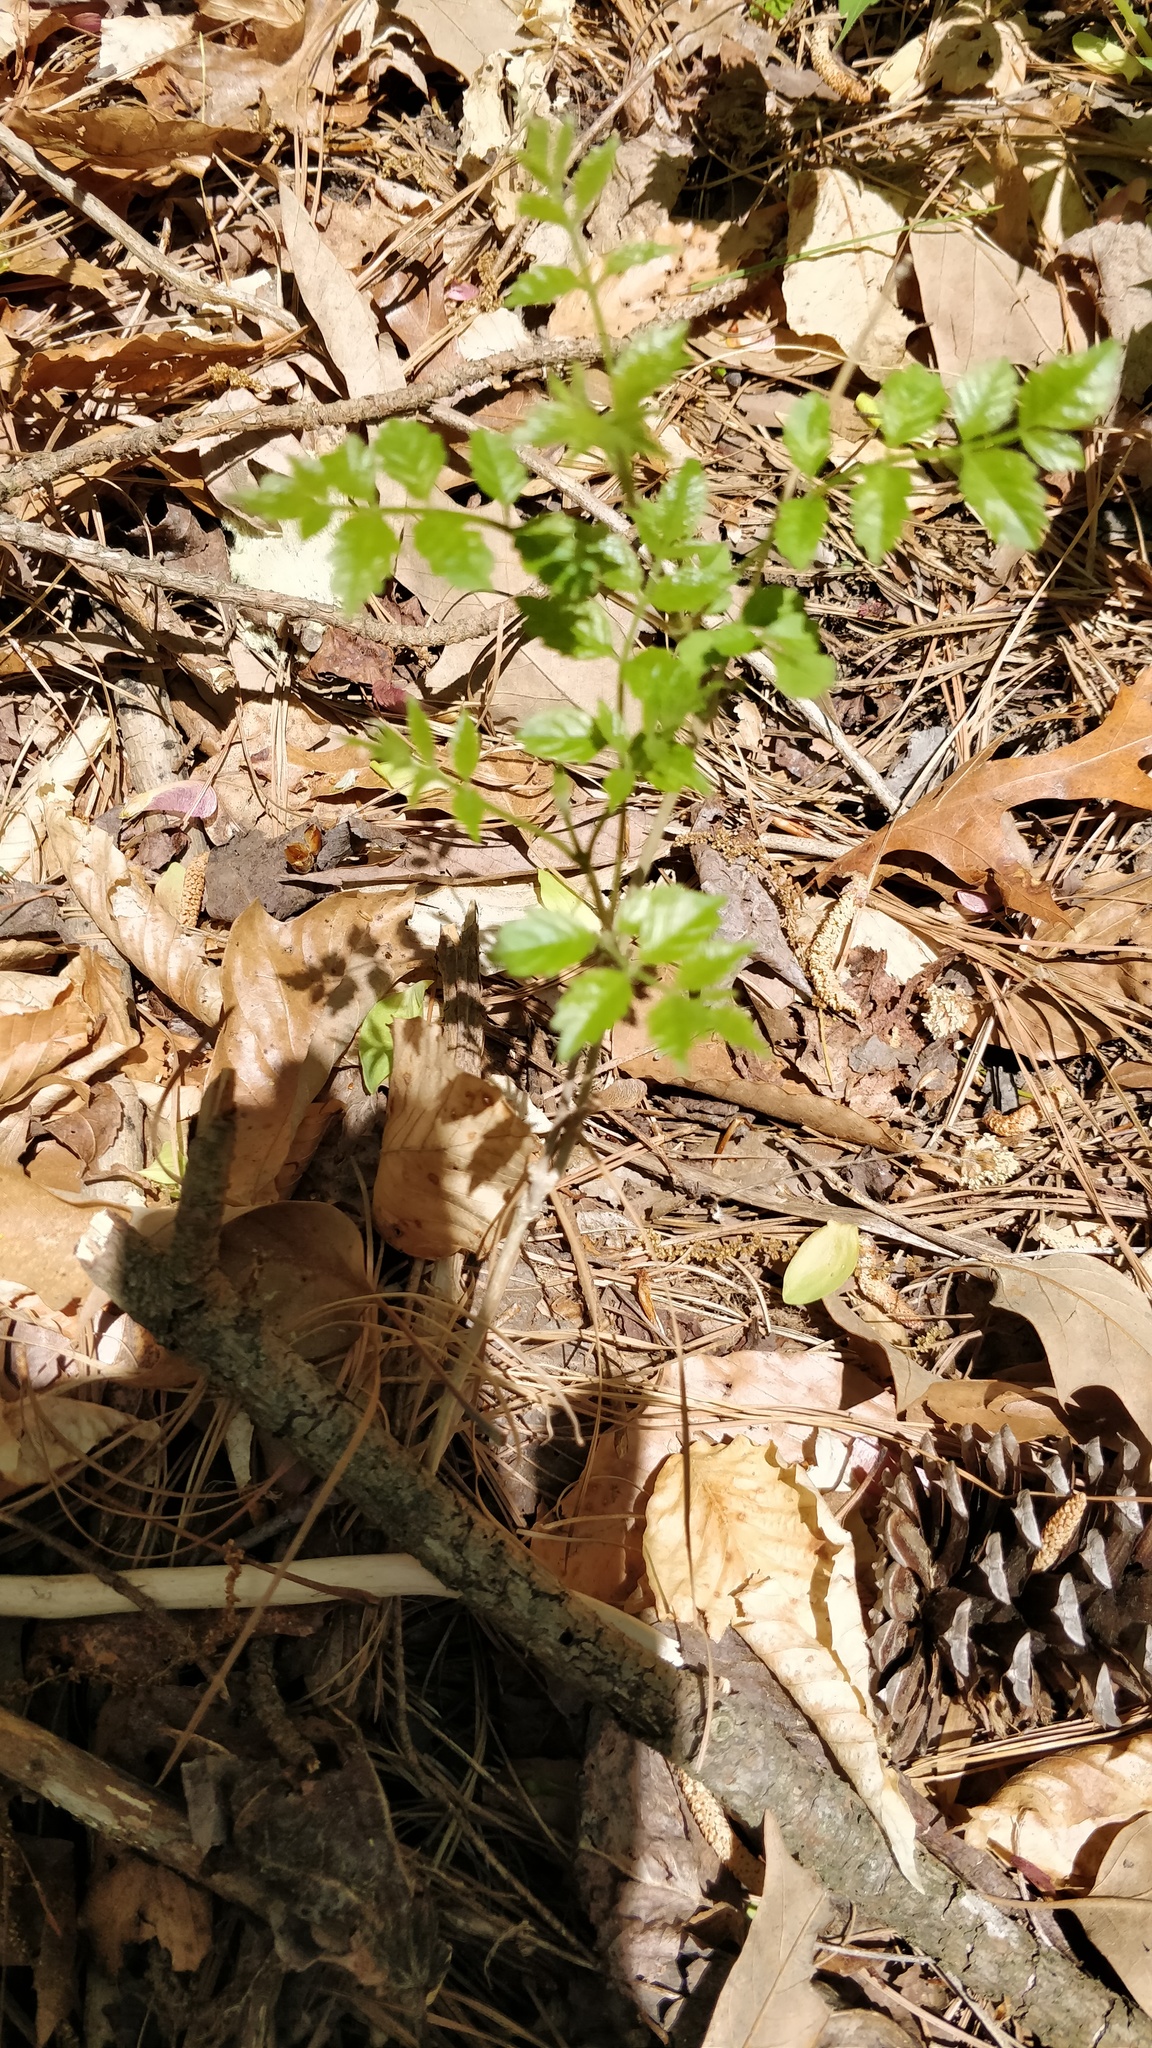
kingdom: Plantae
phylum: Tracheophyta
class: Magnoliopsida
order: Lamiales
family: Bignoniaceae
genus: Campsis
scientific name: Campsis radicans
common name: Trumpet-creeper
